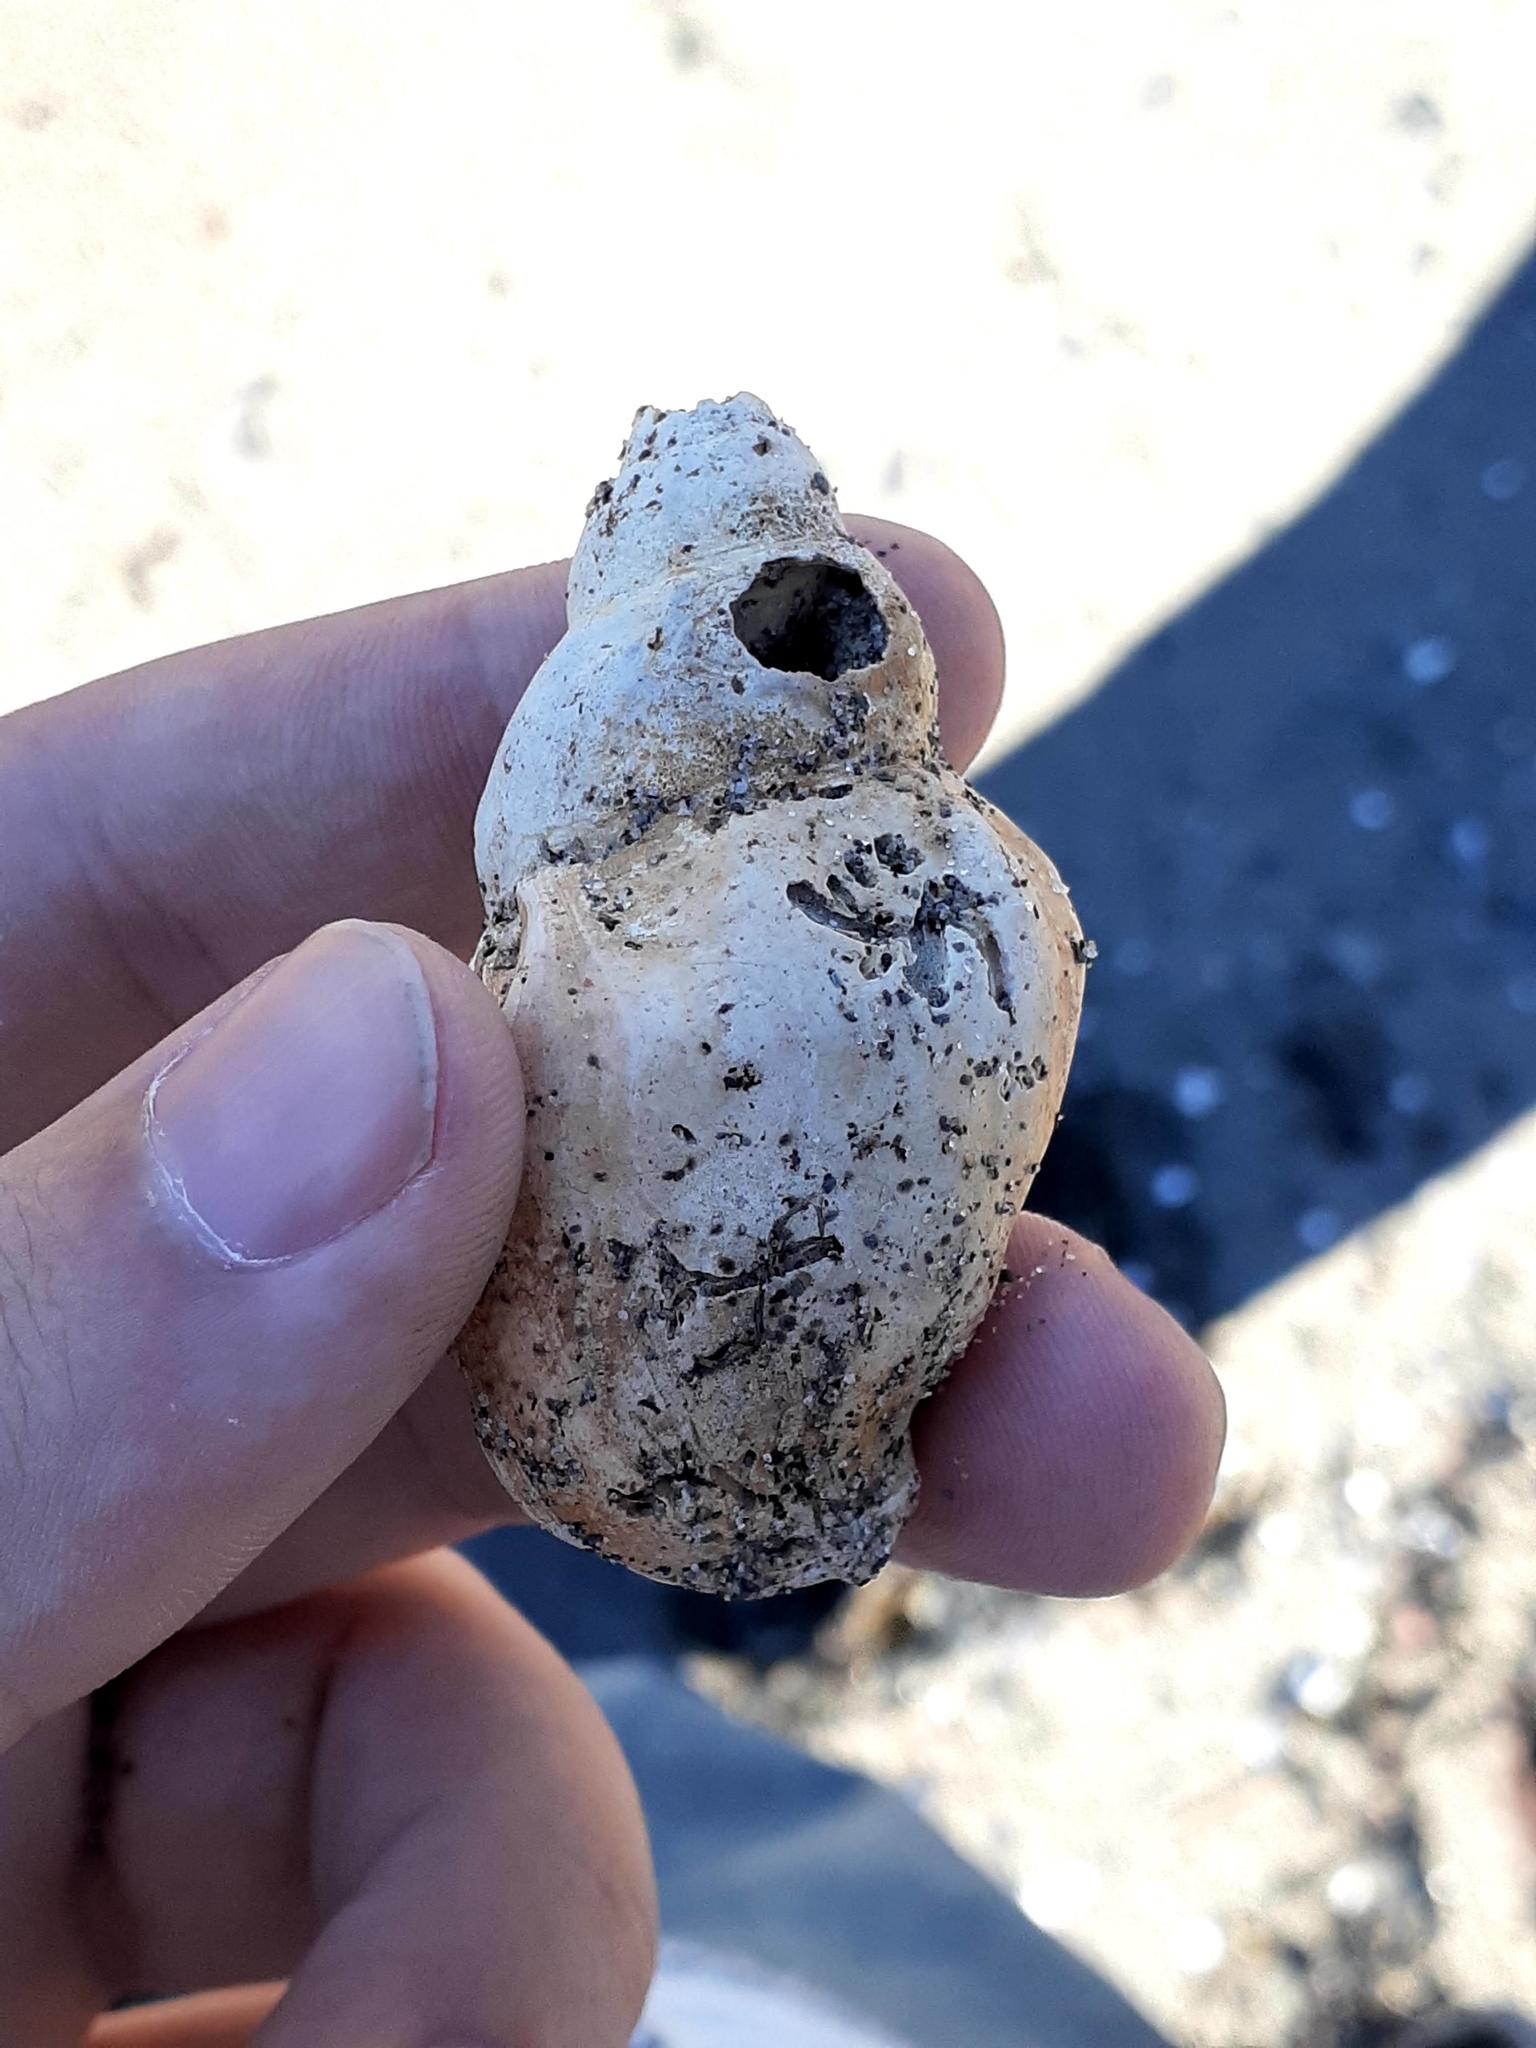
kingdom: Animalia
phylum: Mollusca
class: Gastropoda
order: Neogastropoda
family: Buccinidae
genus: Buccinum
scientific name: Buccinum undatum
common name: Common whelk
